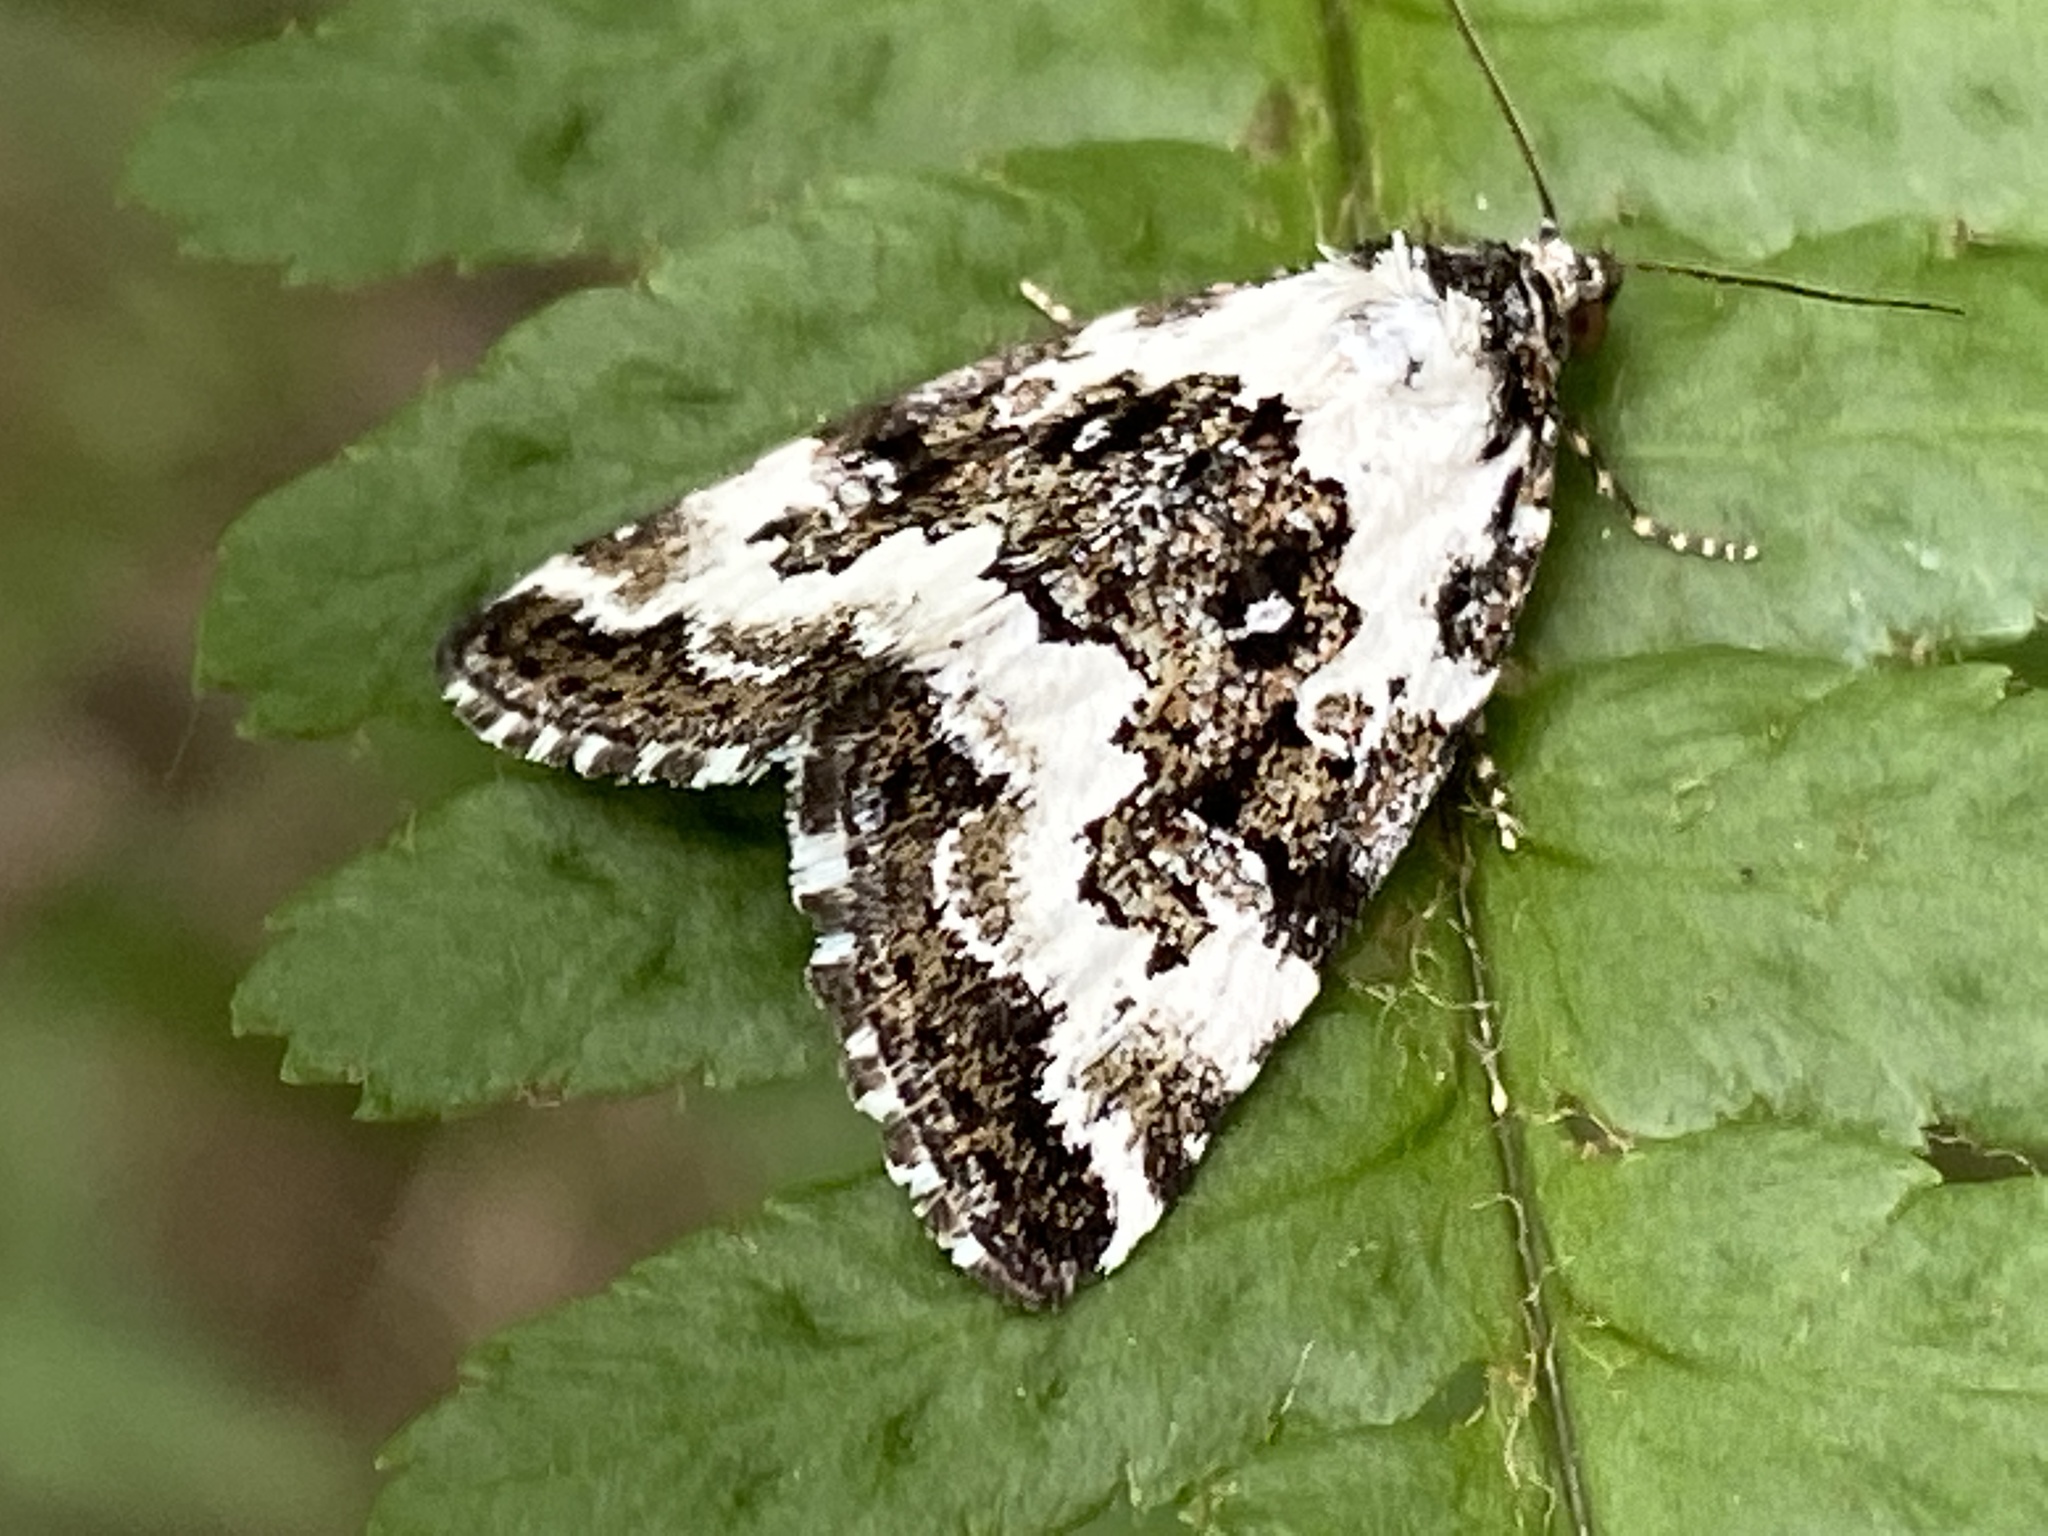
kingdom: Animalia
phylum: Arthropoda
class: Insecta
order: Lepidoptera
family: Noctuidae
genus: Deltote
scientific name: Deltote deceptoria
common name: Pretty marbled
